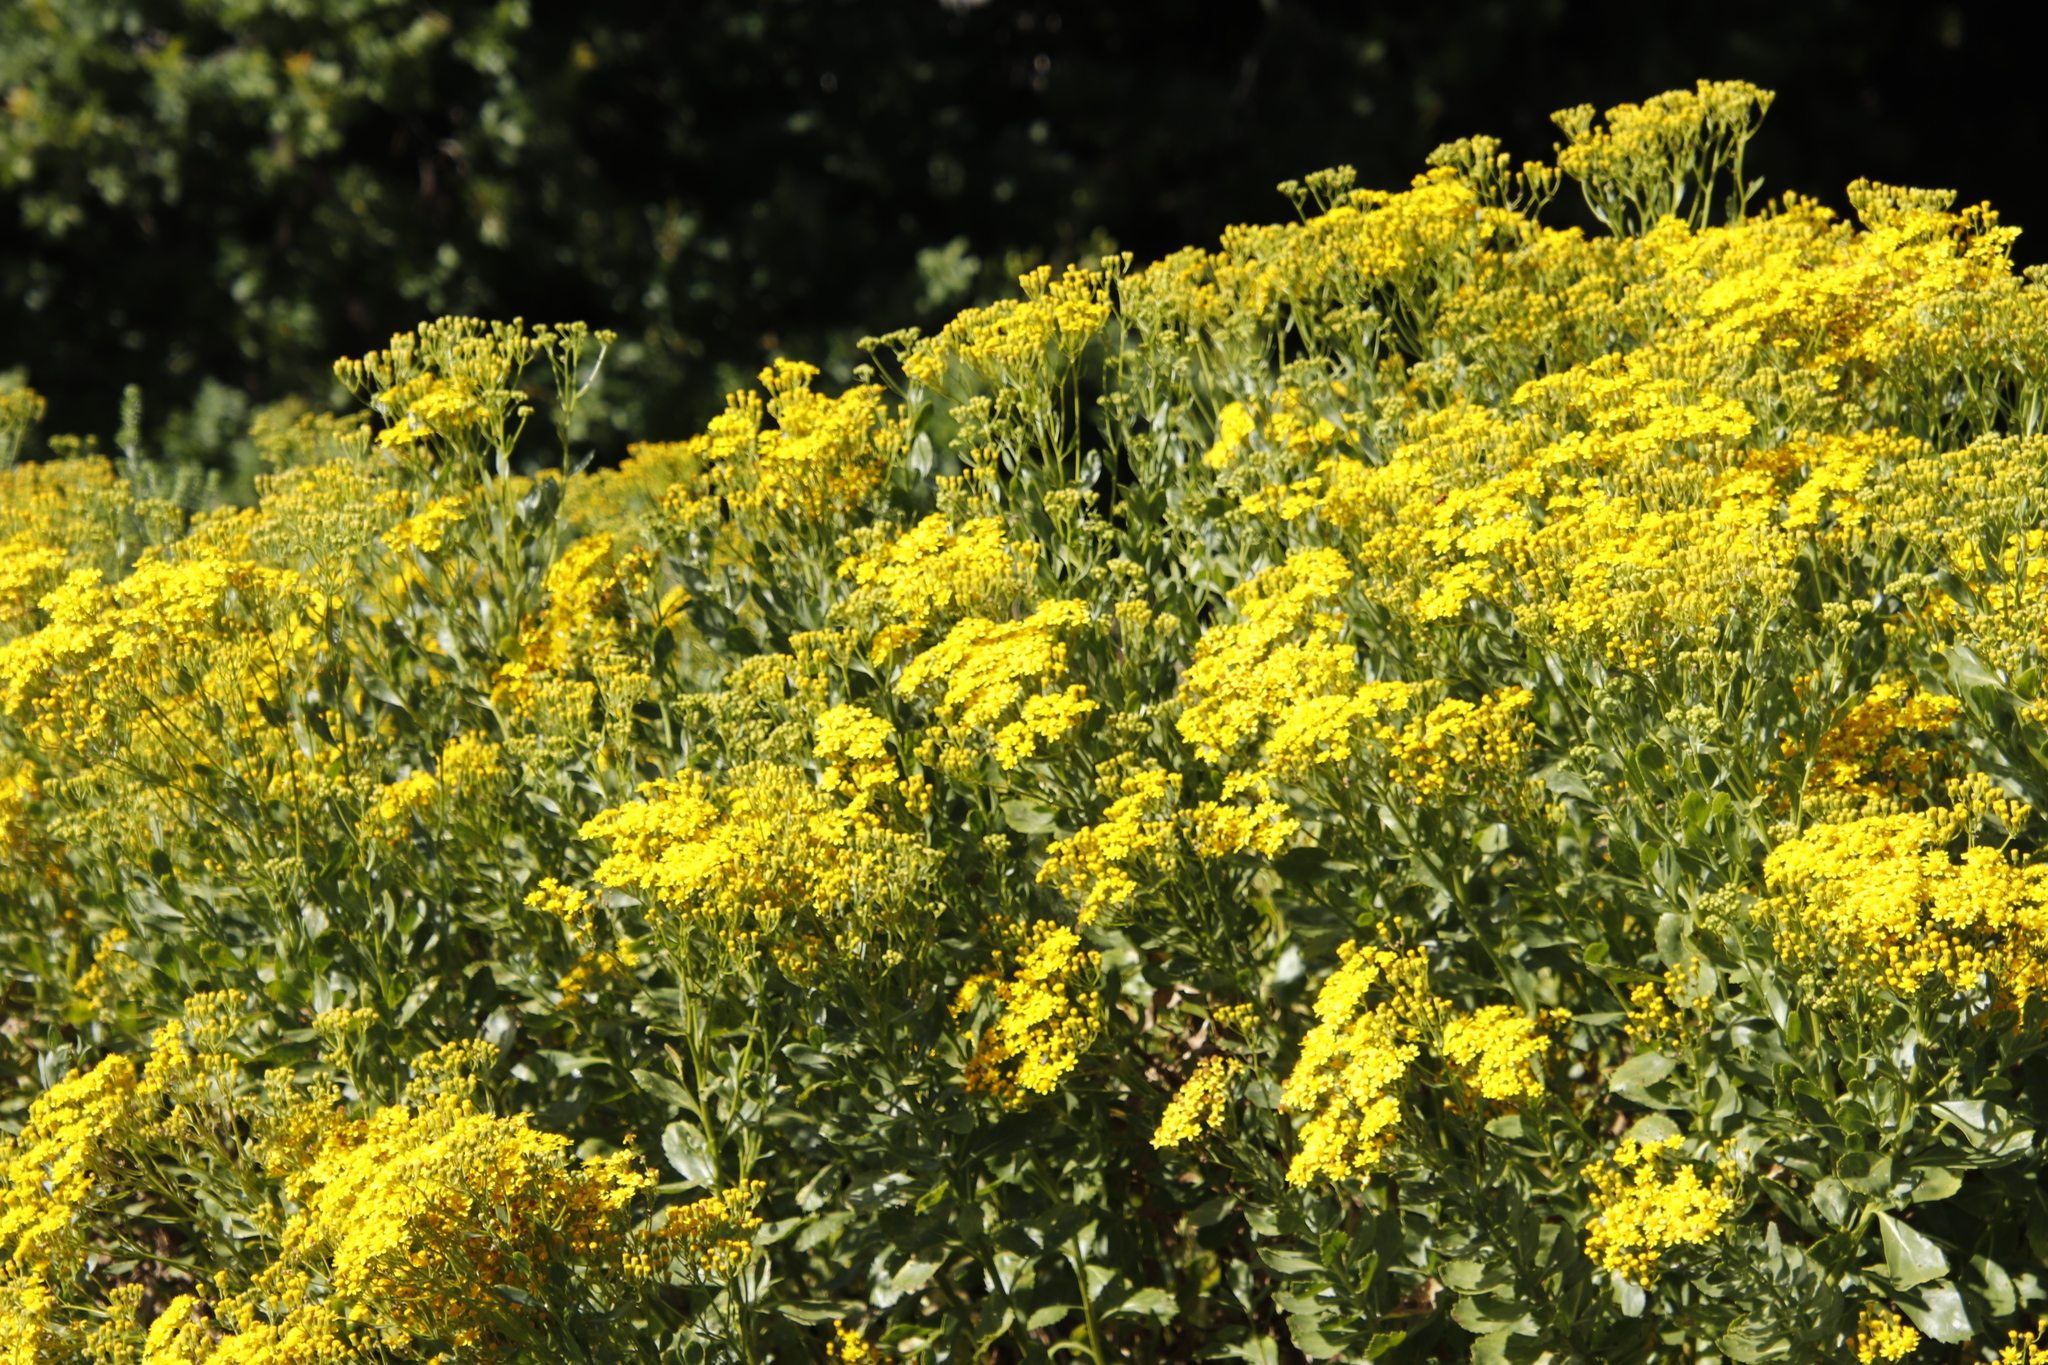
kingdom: Plantae
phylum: Tracheophyta
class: Magnoliopsida
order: Asterales
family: Asteraceae
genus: Senecio
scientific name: Senecio pterophorus
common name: Shoddy ragwort
